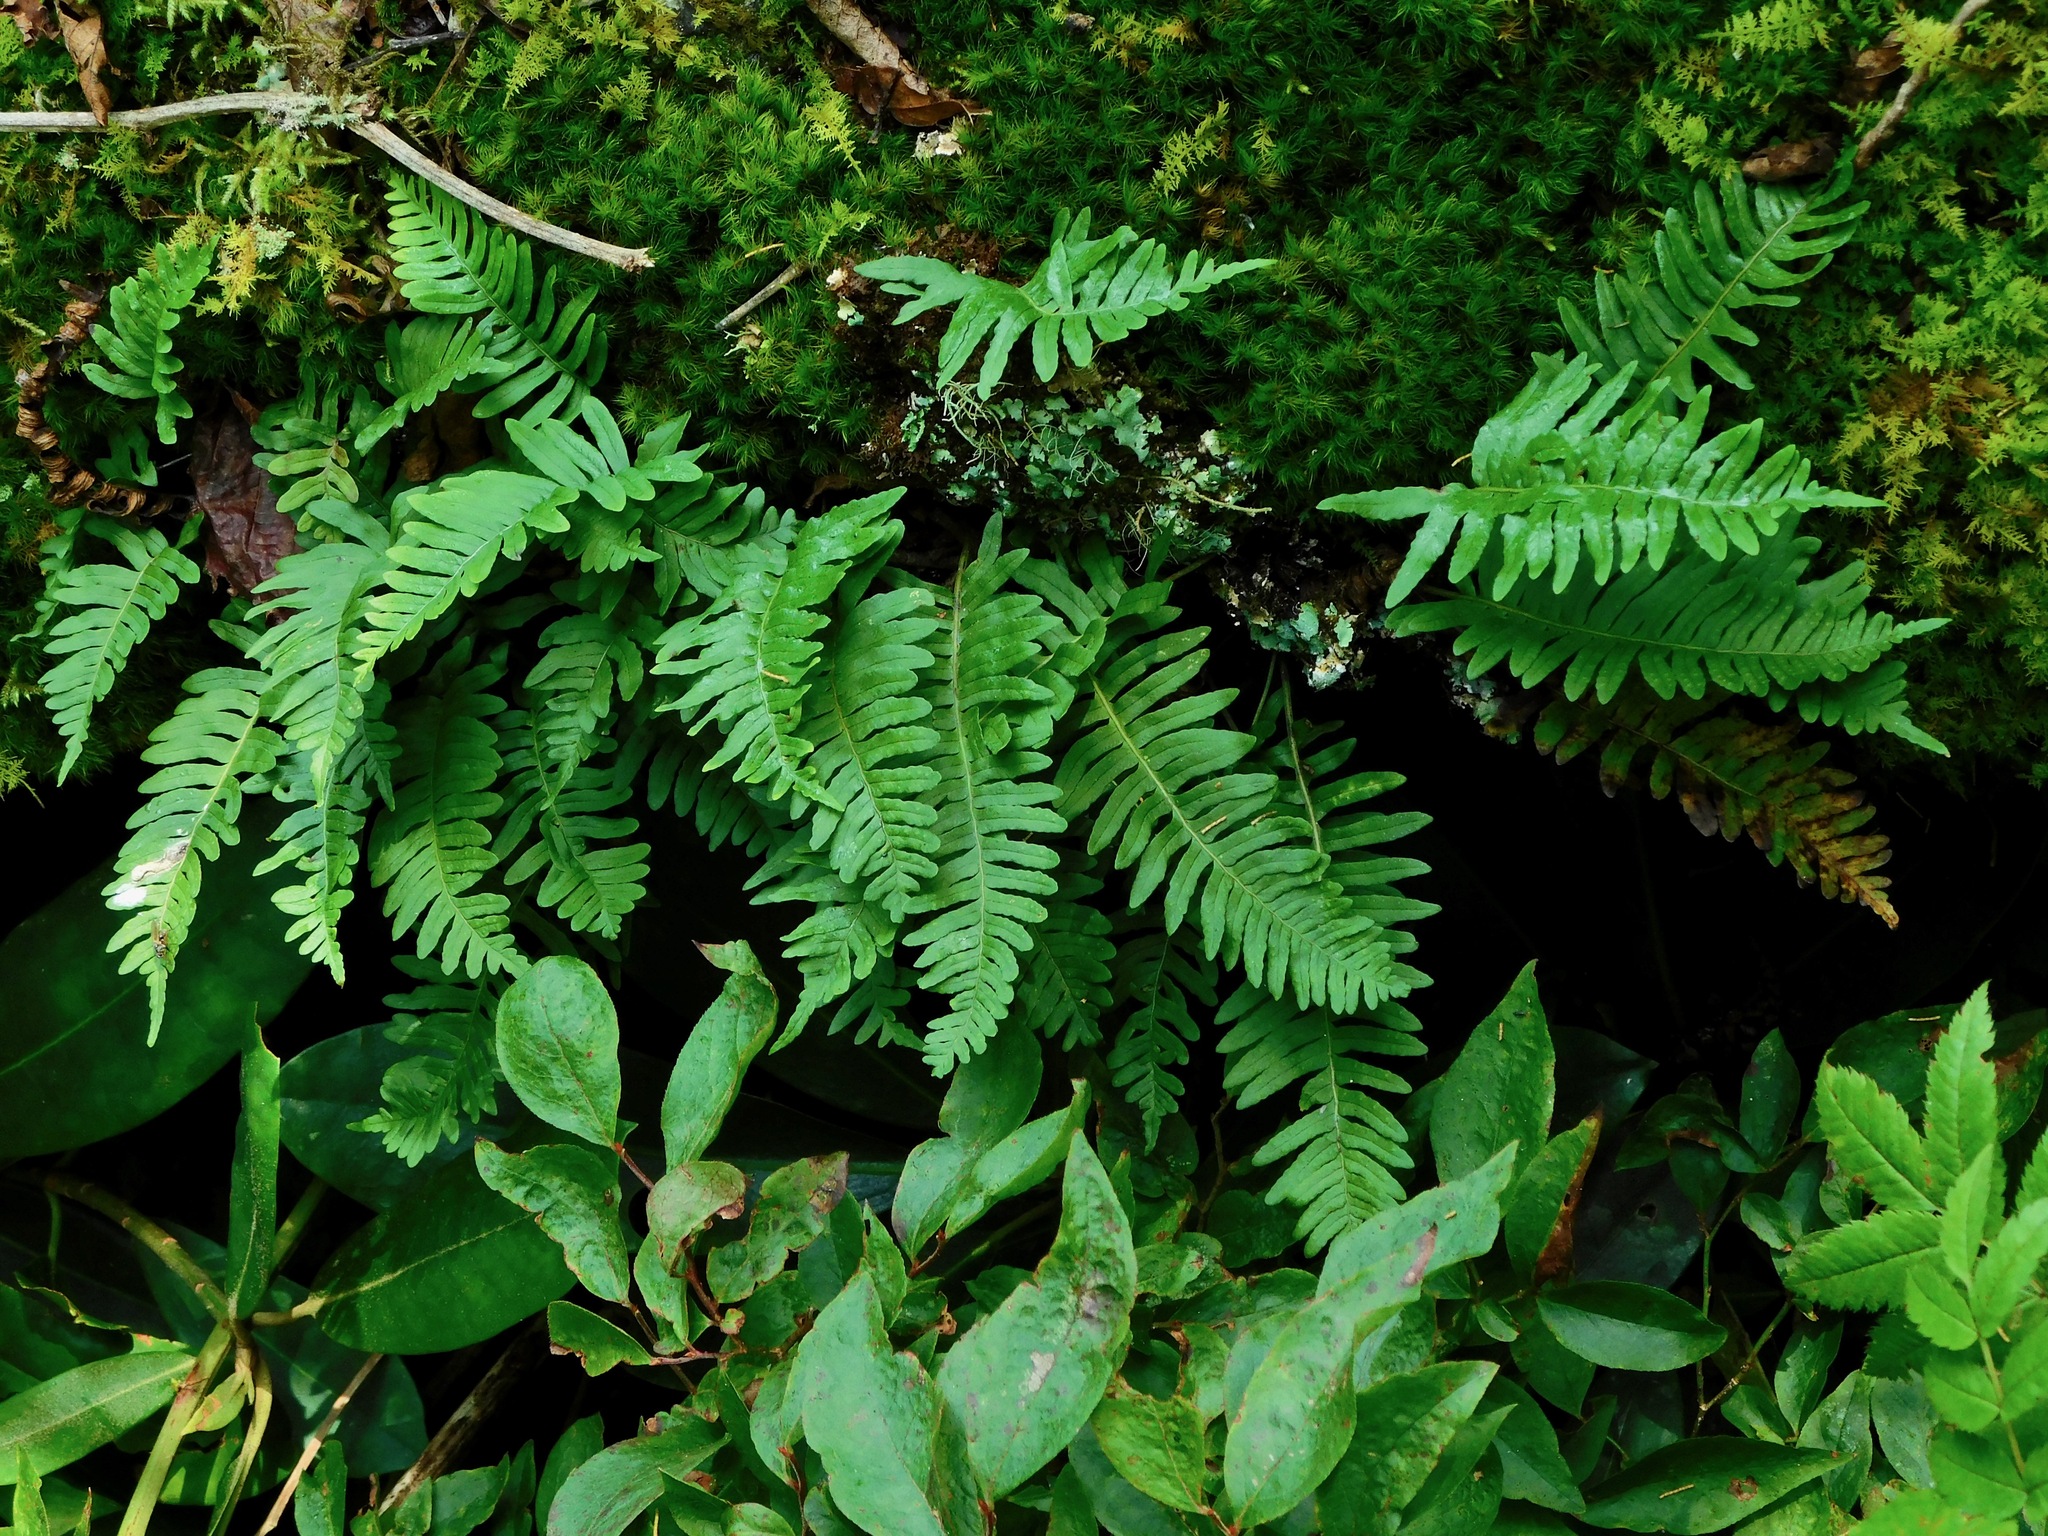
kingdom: Plantae
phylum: Tracheophyta
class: Polypodiopsida
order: Polypodiales
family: Polypodiaceae
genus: Polypodium
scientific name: Polypodium virginianum
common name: American wall fern
